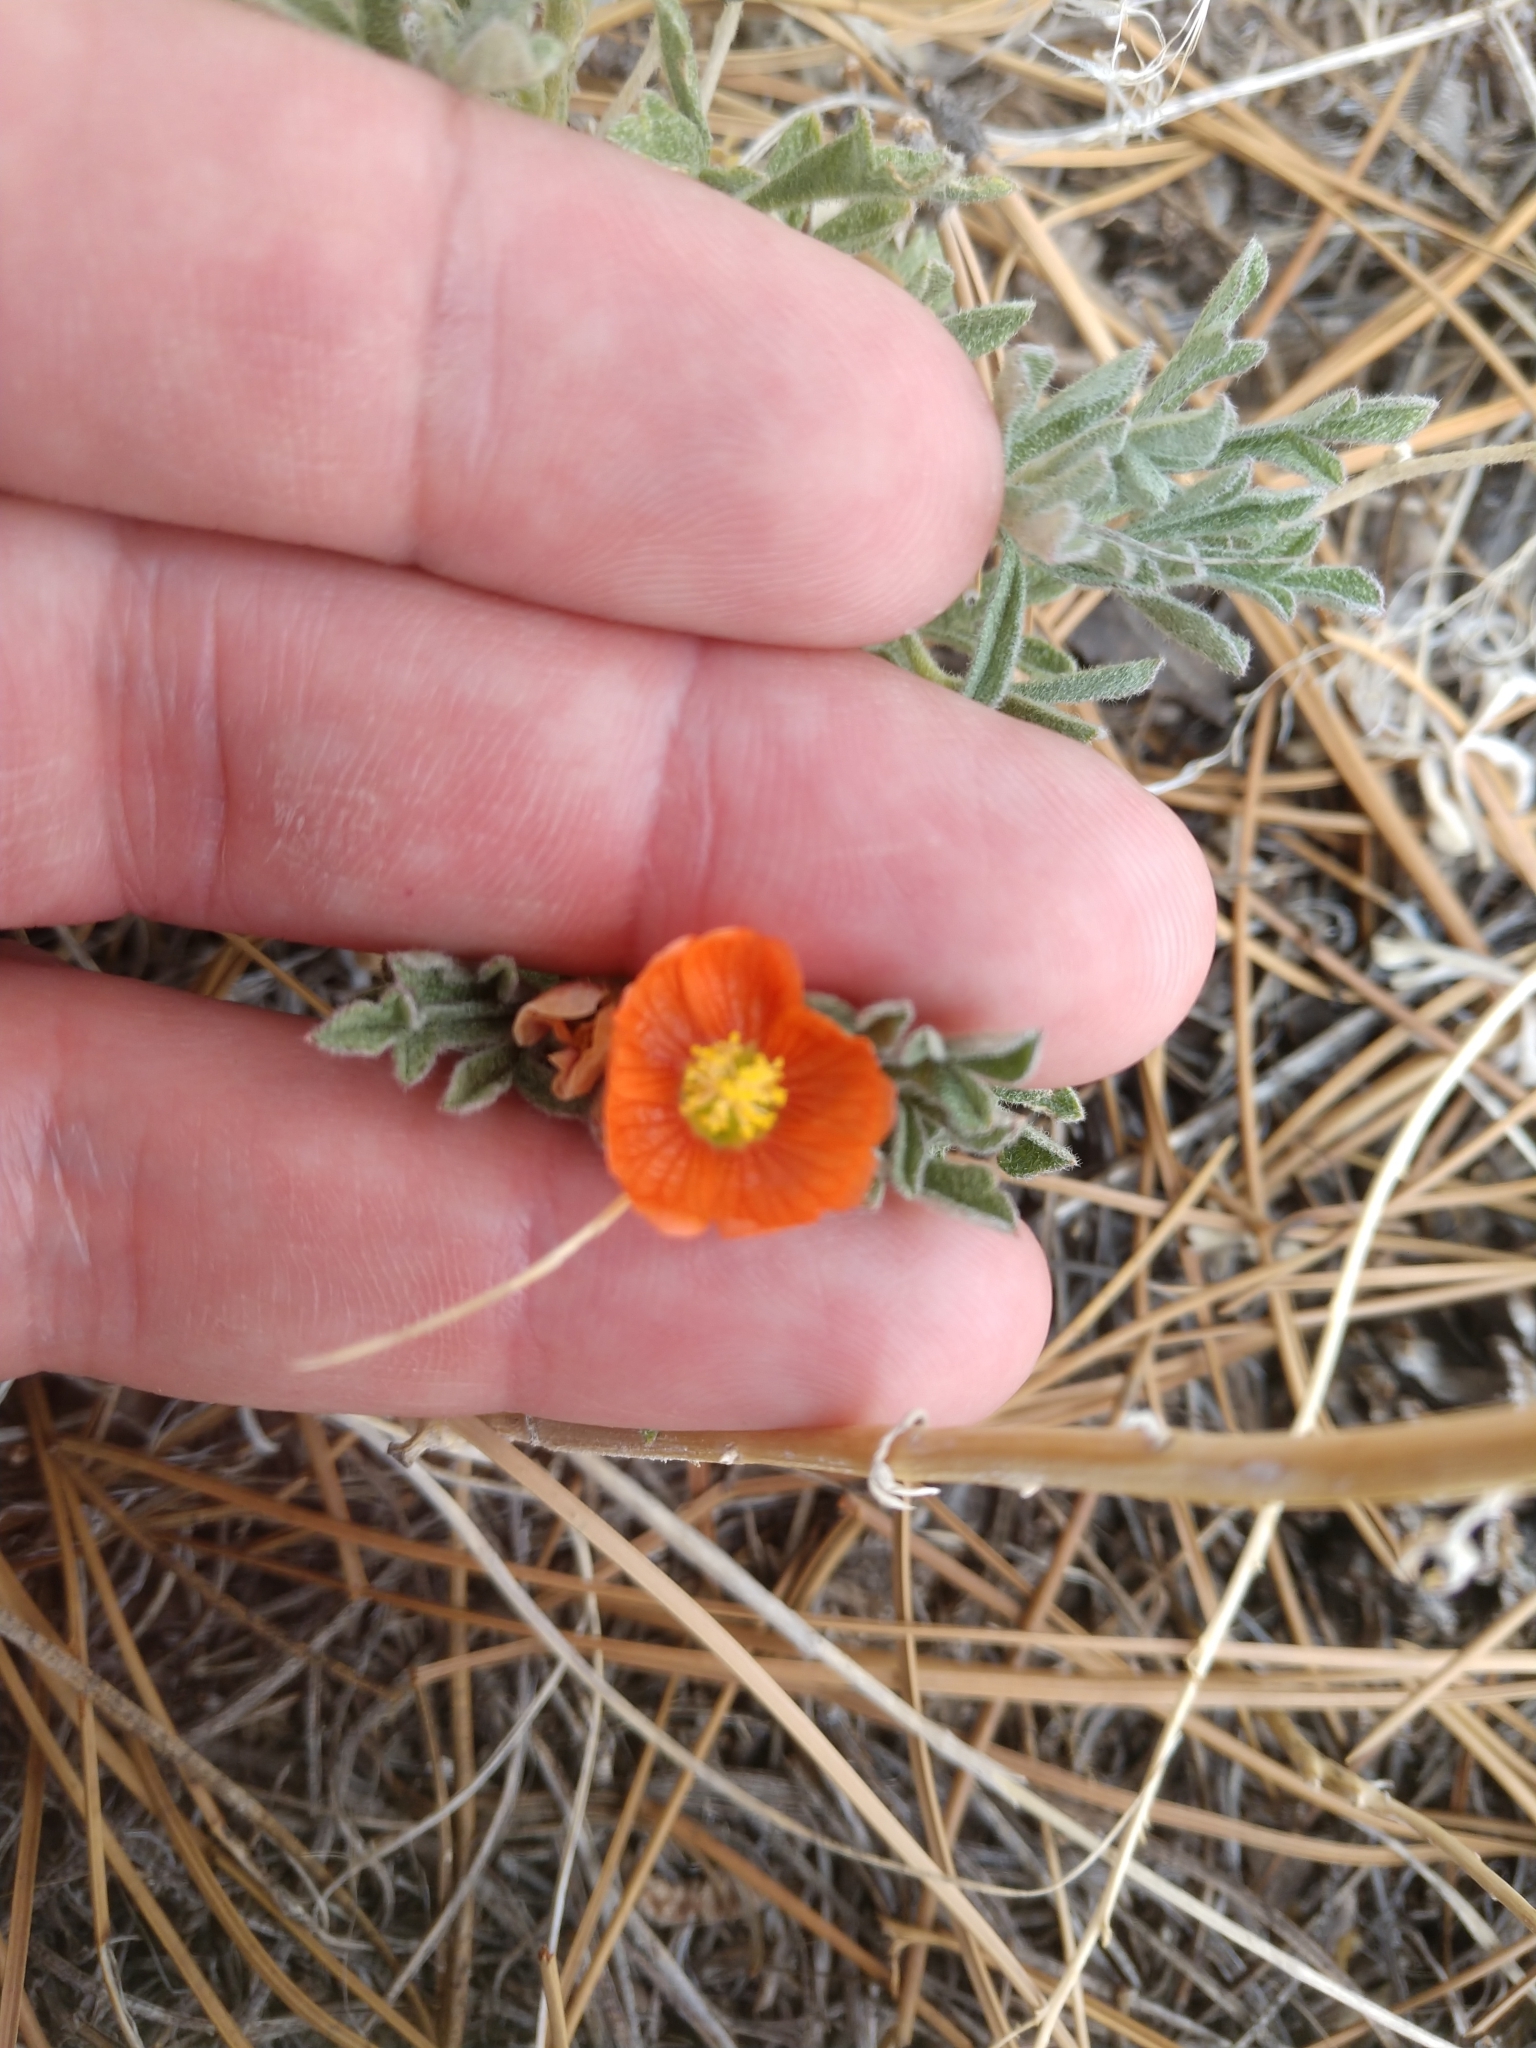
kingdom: Plantae
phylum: Tracheophyta
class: Magnoliopsida
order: Malvales
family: Malvaceae
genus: Sphaeralcea
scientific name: Sphaeralcea coccinea
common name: Moss-rose
